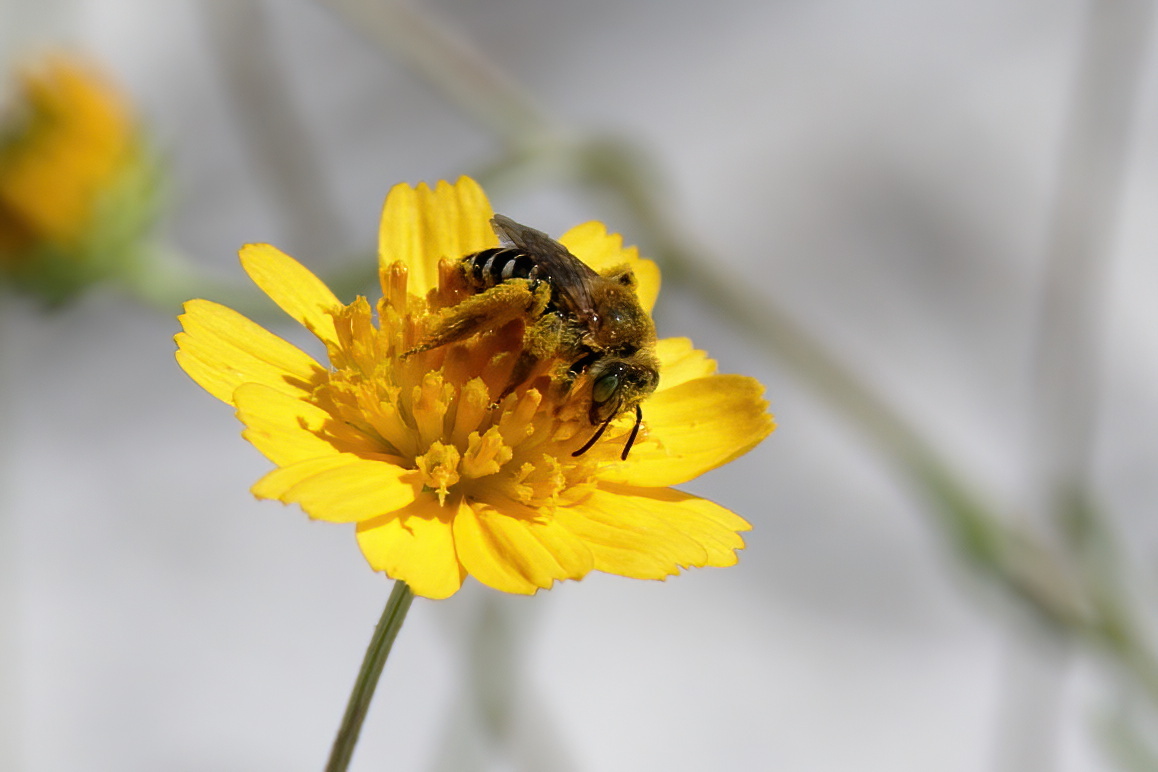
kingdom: Animalia
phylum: Arthropoda
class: Insecta
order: Hymenoptera
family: Melittidae
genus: Hesperapis
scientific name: Hesperapis oraria
